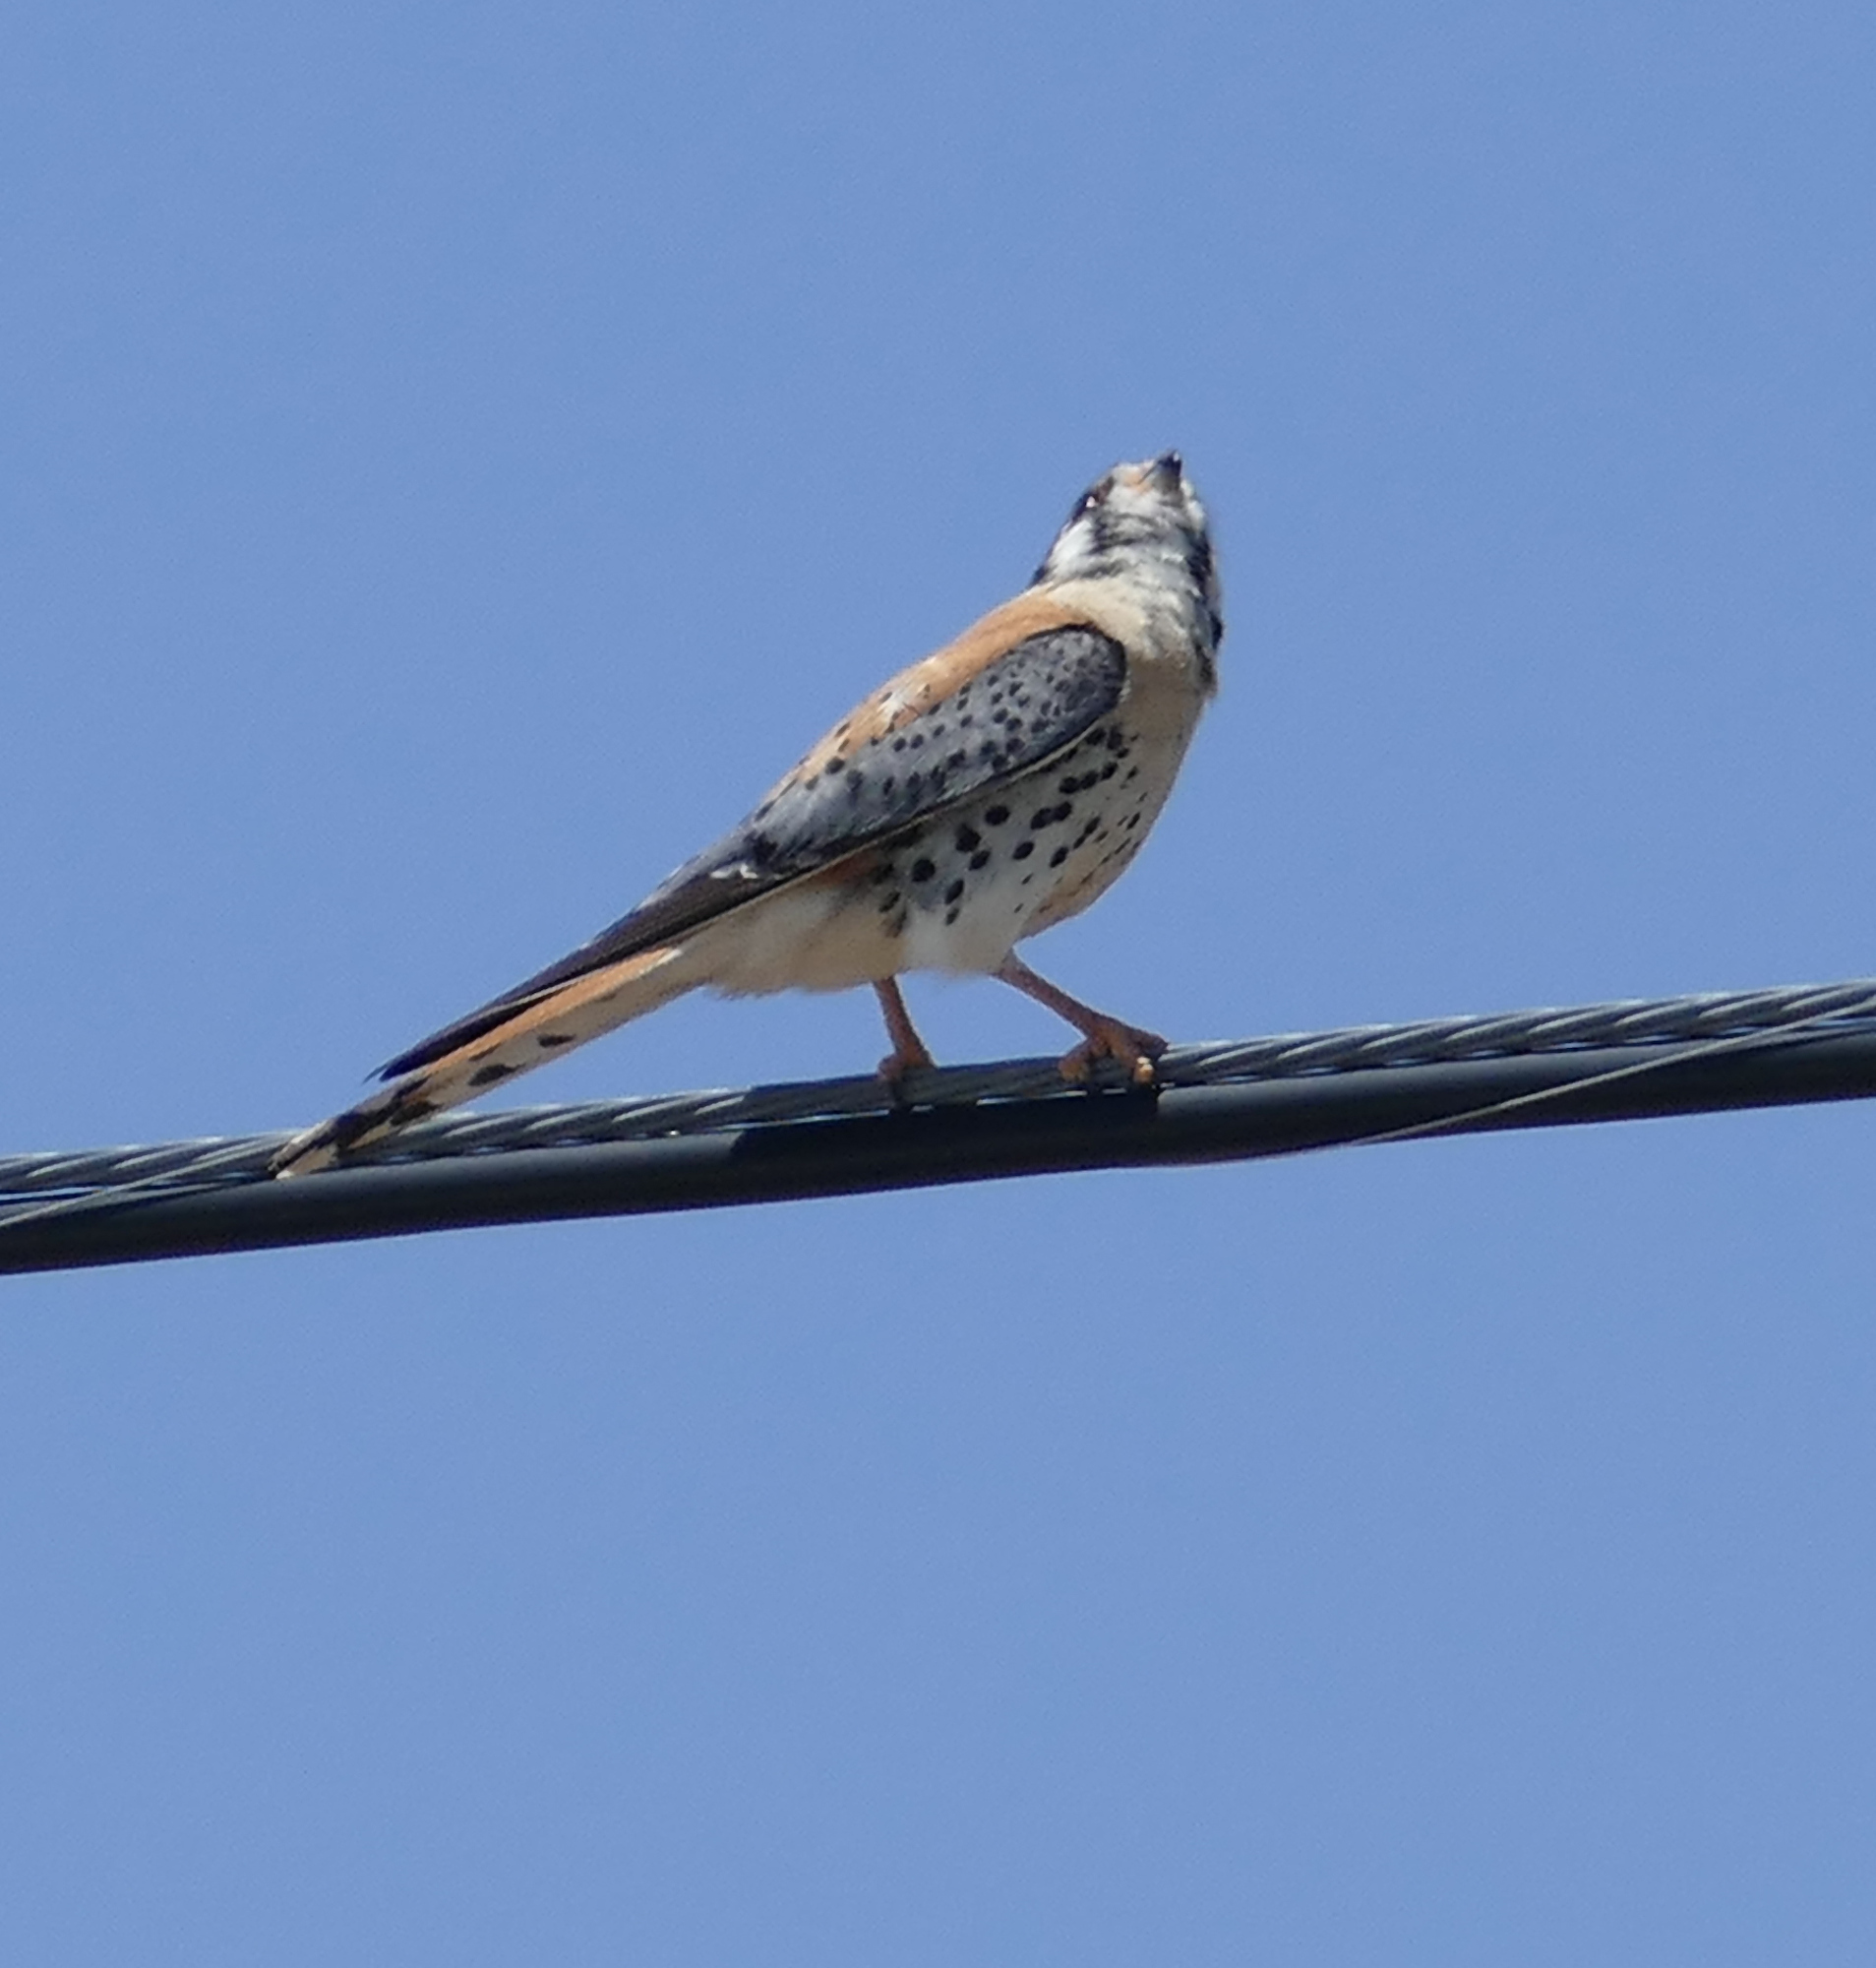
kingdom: Animalia
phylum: Chordata
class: Aves
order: Falconiformes
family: Falconidae
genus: Falco
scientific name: Falco sparverius
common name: American kestrel
